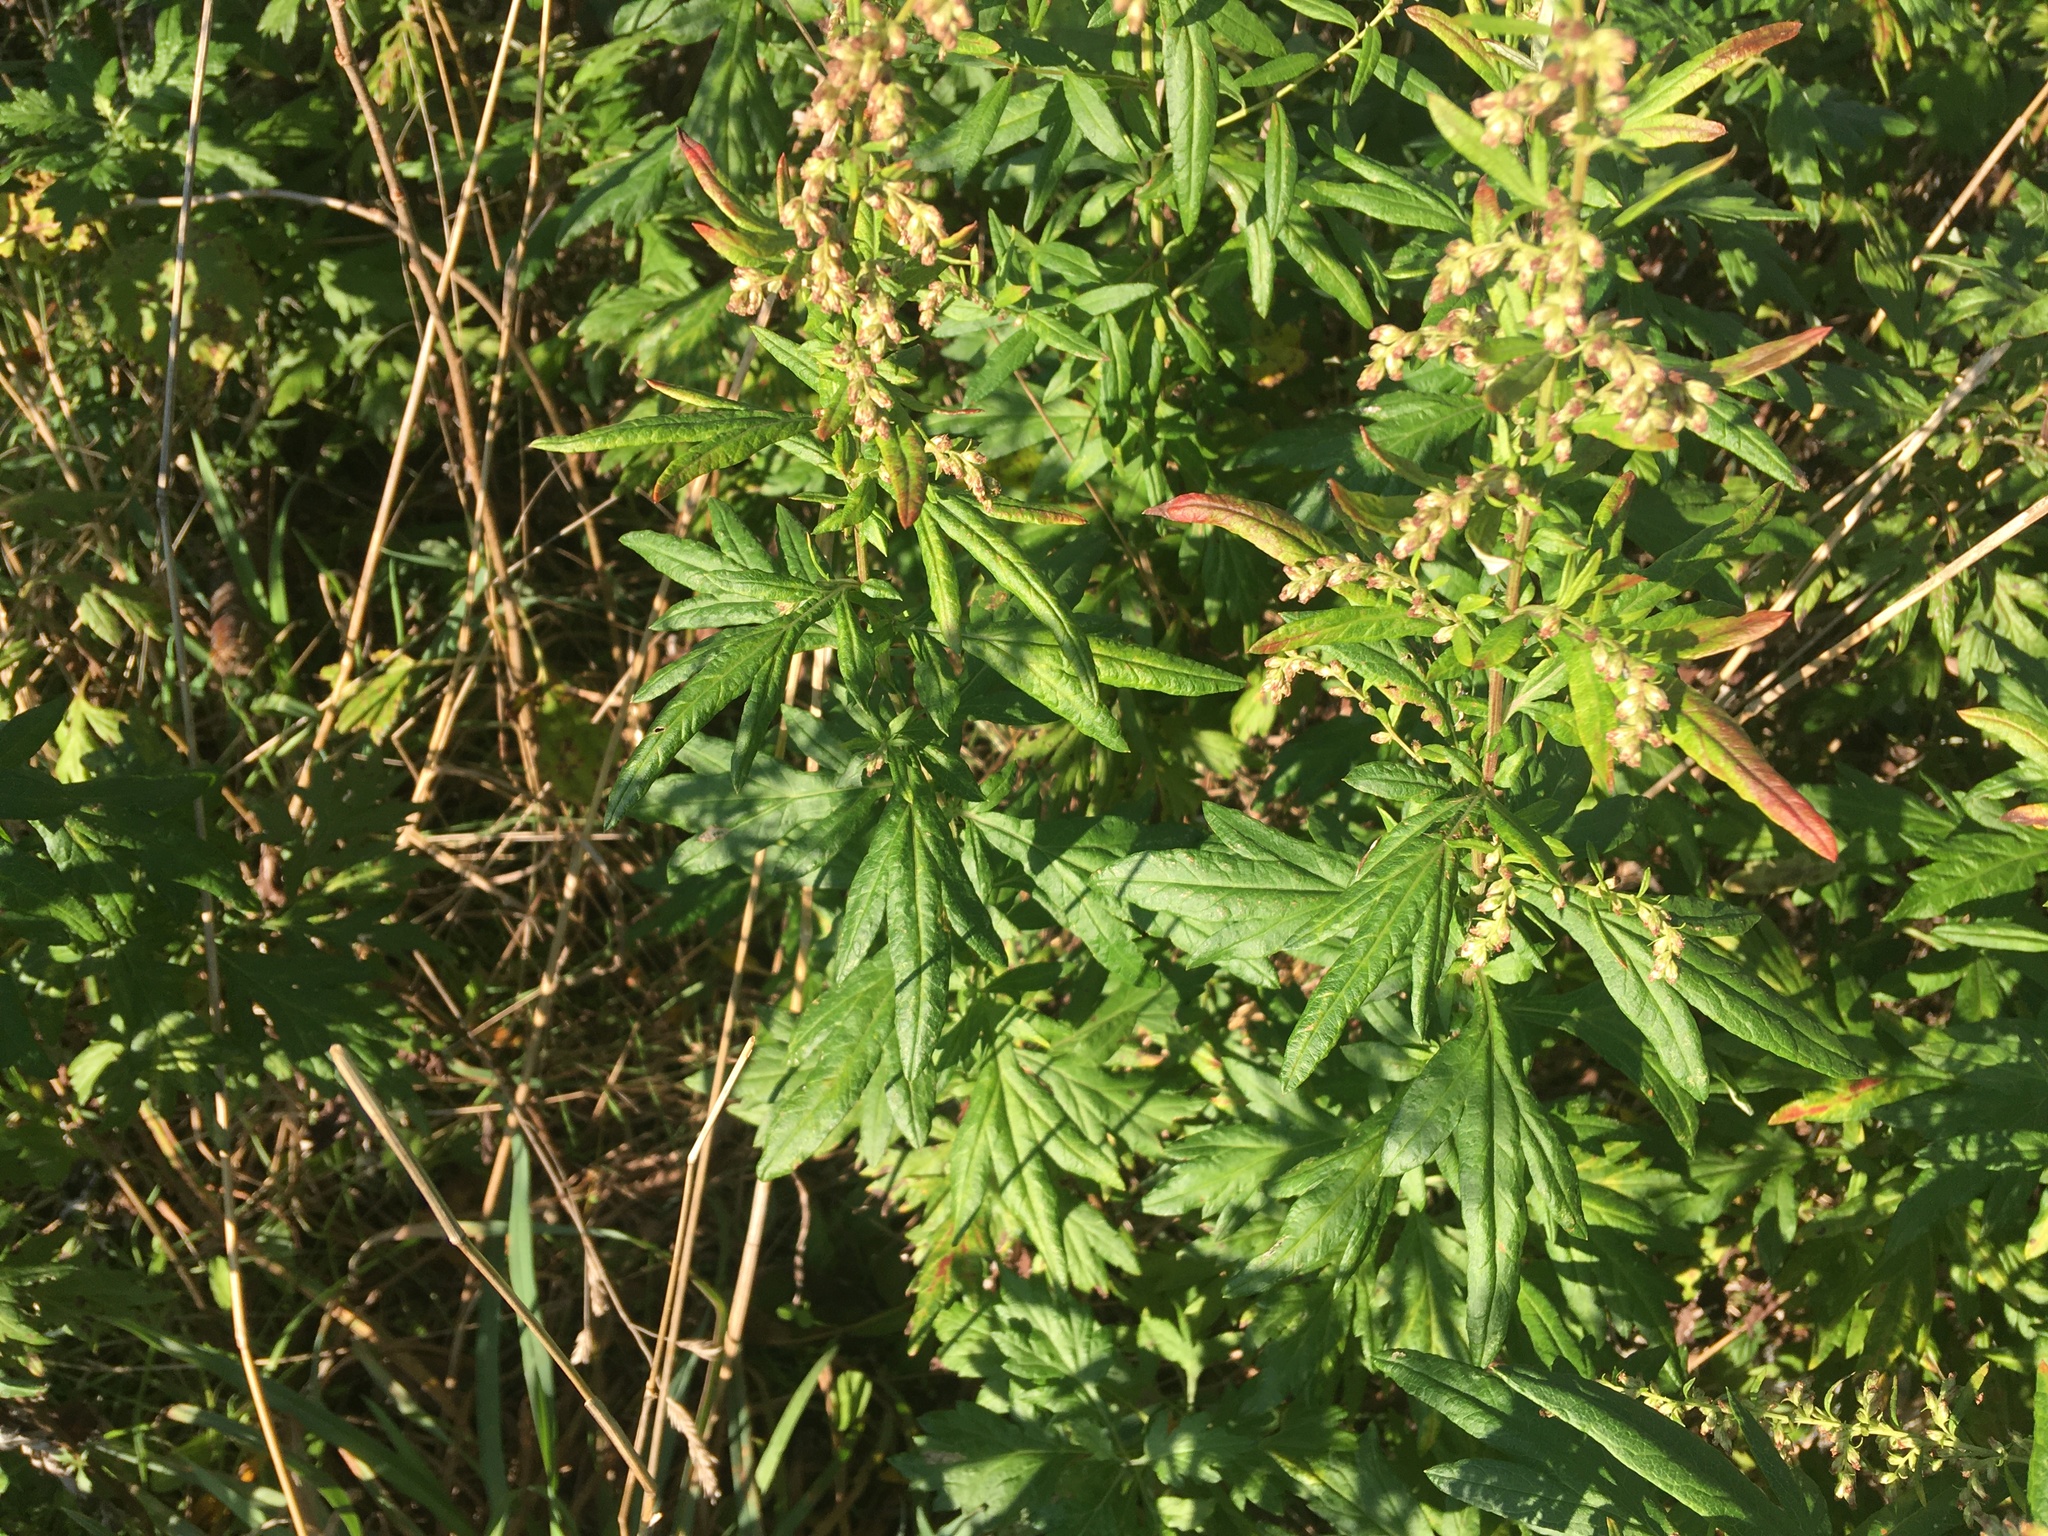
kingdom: Plantae
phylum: Tracheophyta
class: Magnoliopsida
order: Asterales
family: Asteraceae
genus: Artemisia
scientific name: Artemisia vulgaris
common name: Mugwort
